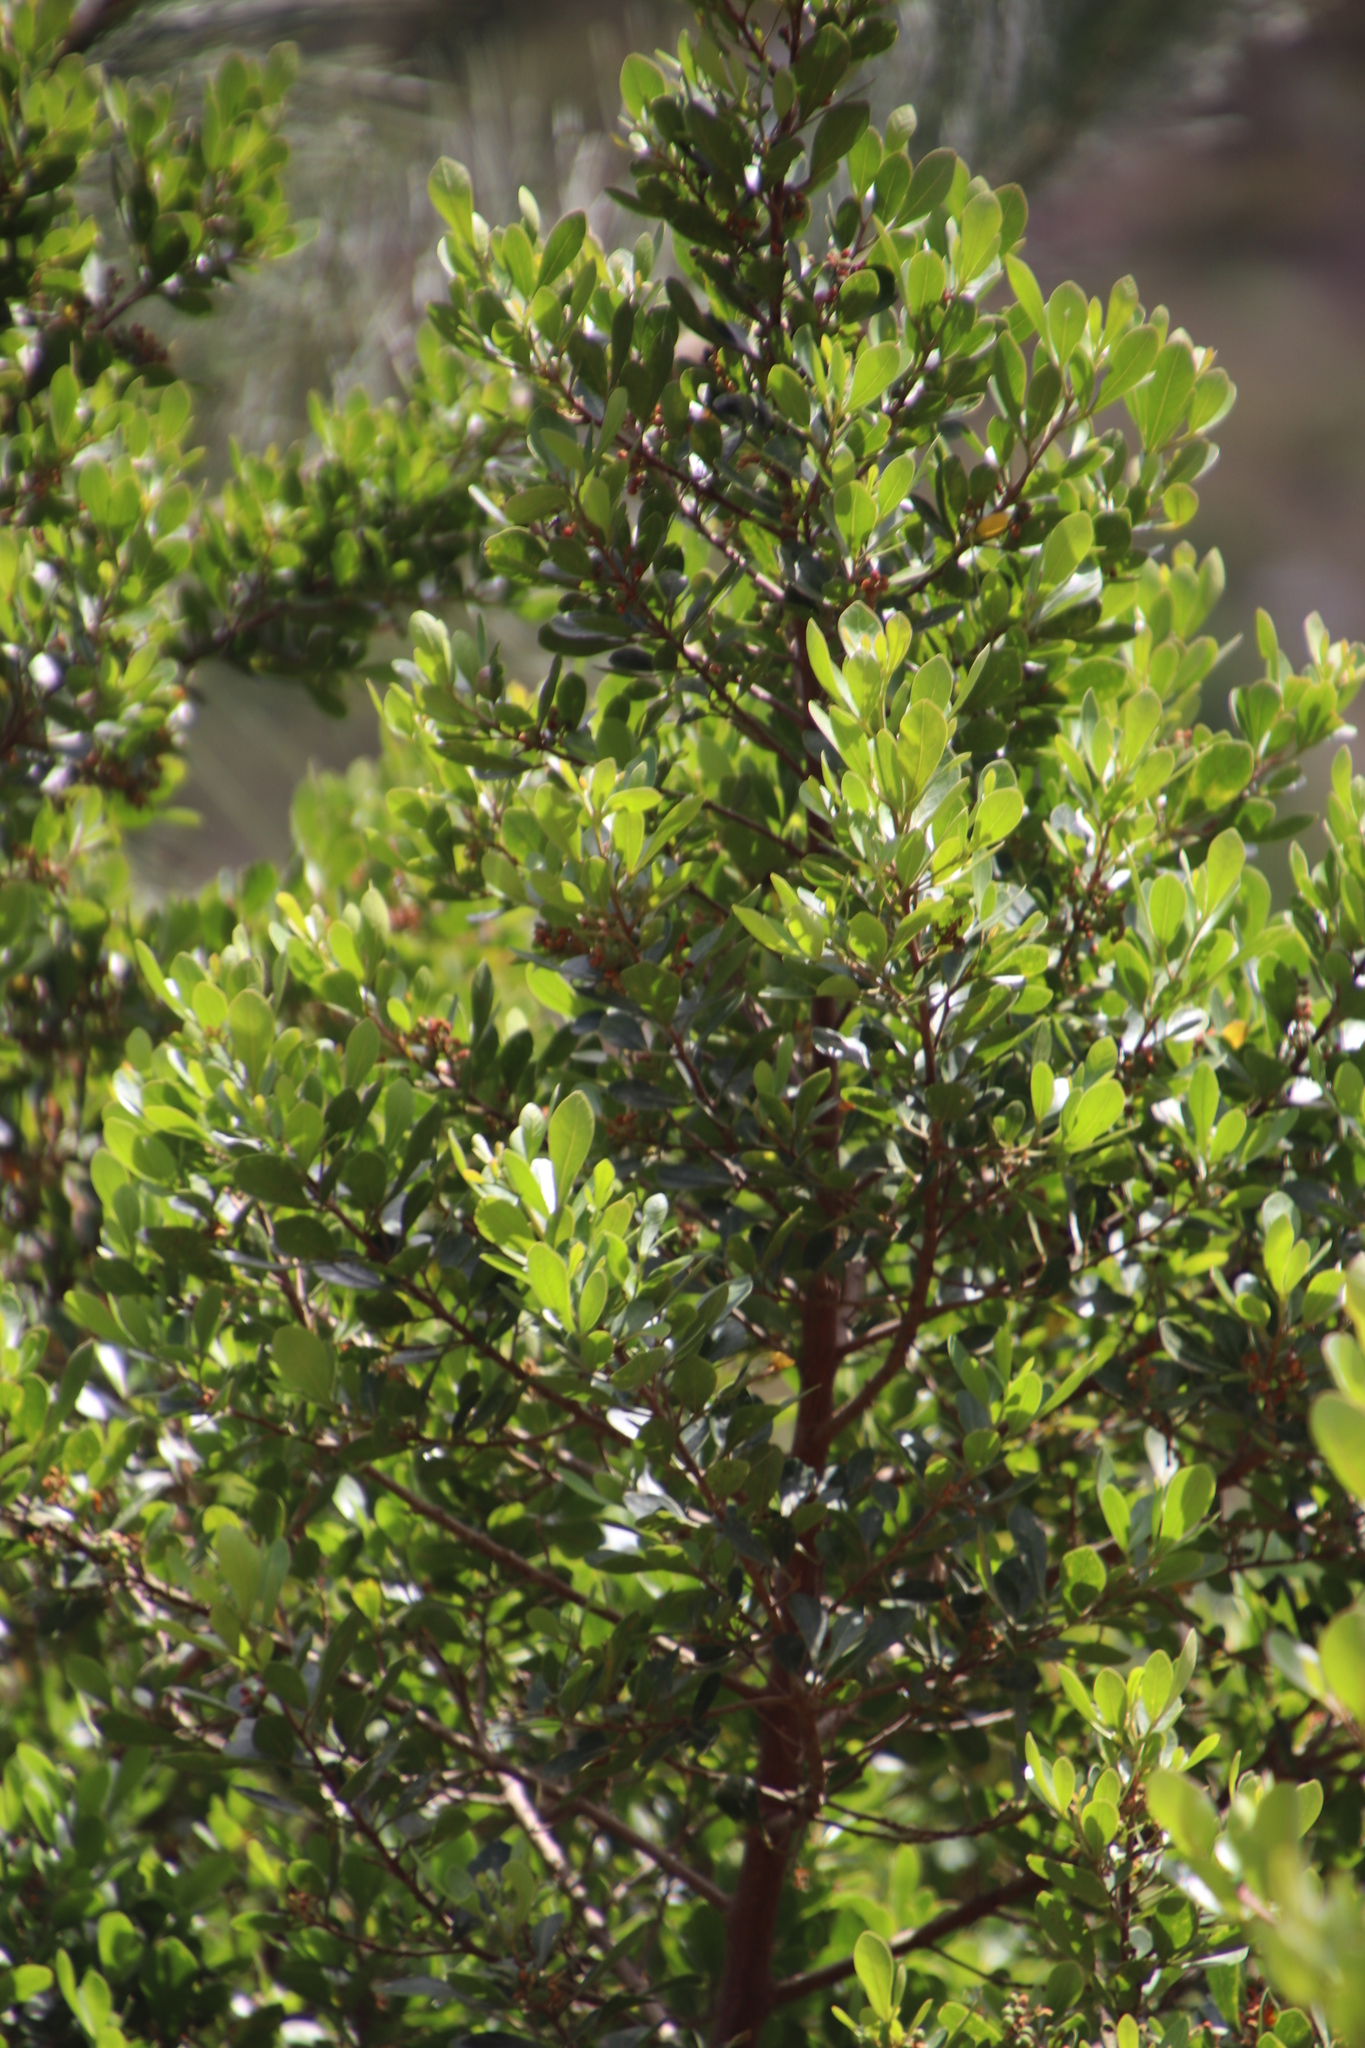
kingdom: Plantae
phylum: Tracheophyta
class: Magnoliopsida
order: Sapindales
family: Anacardiaceae
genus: Searsia
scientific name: Searsia lucida
